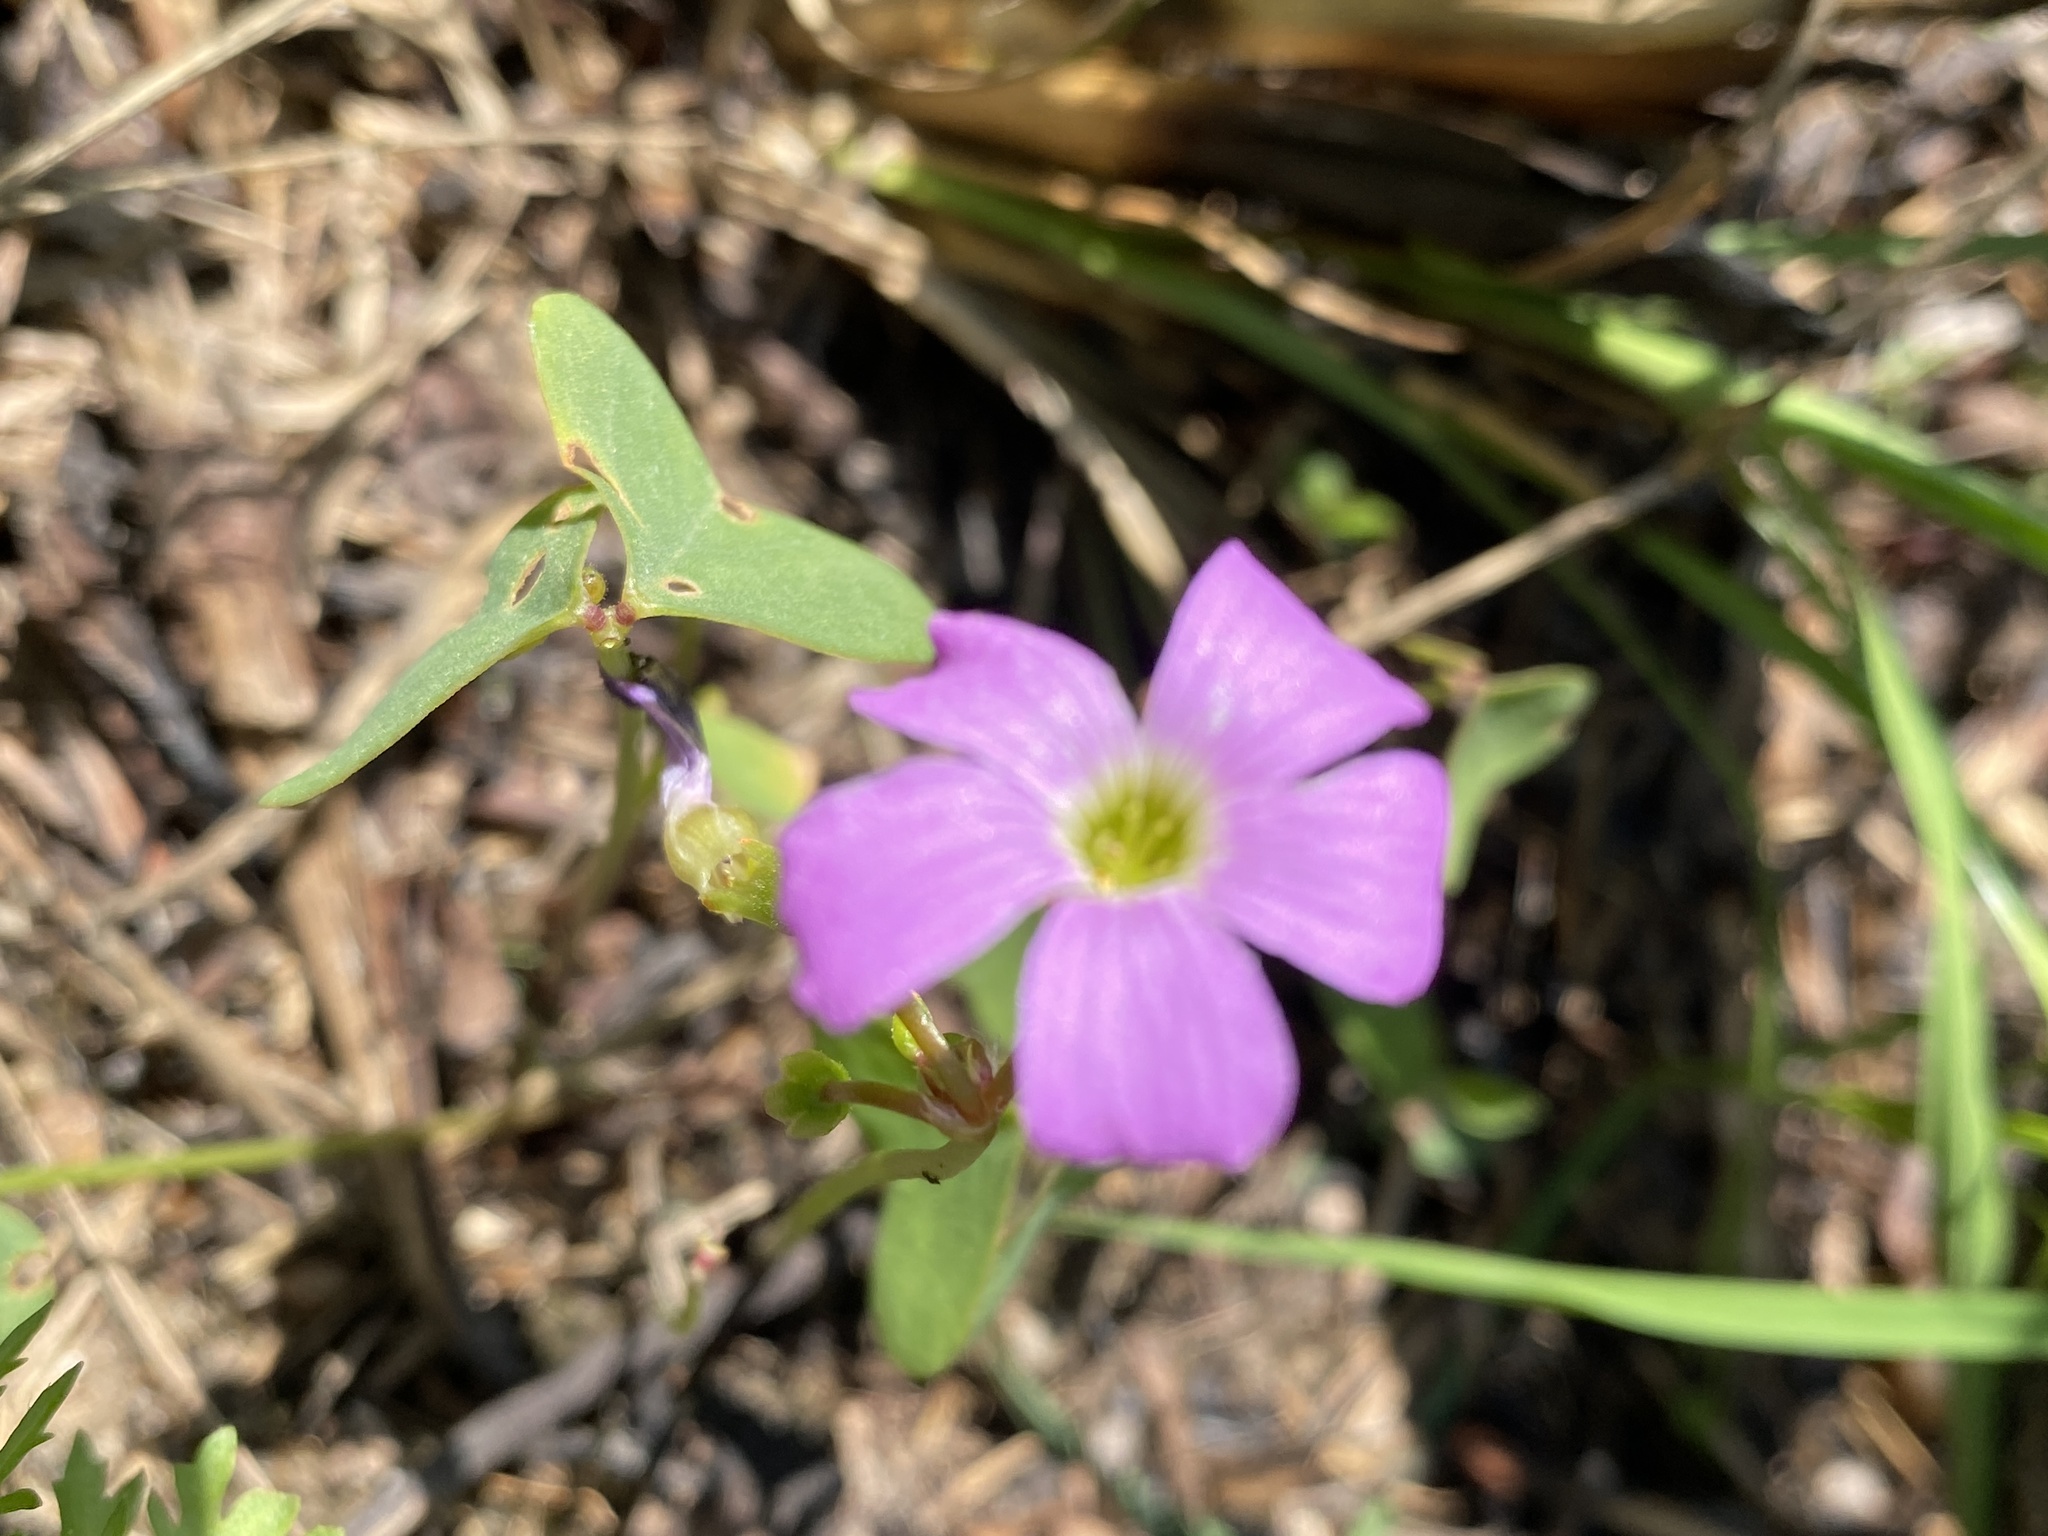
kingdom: Plantae
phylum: Tracheophyta
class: Magnoliopsida
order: Oxalidales
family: Oxalidaceae
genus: Oxalis
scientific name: Oxalis violacea
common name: Violet wood-sorrel
